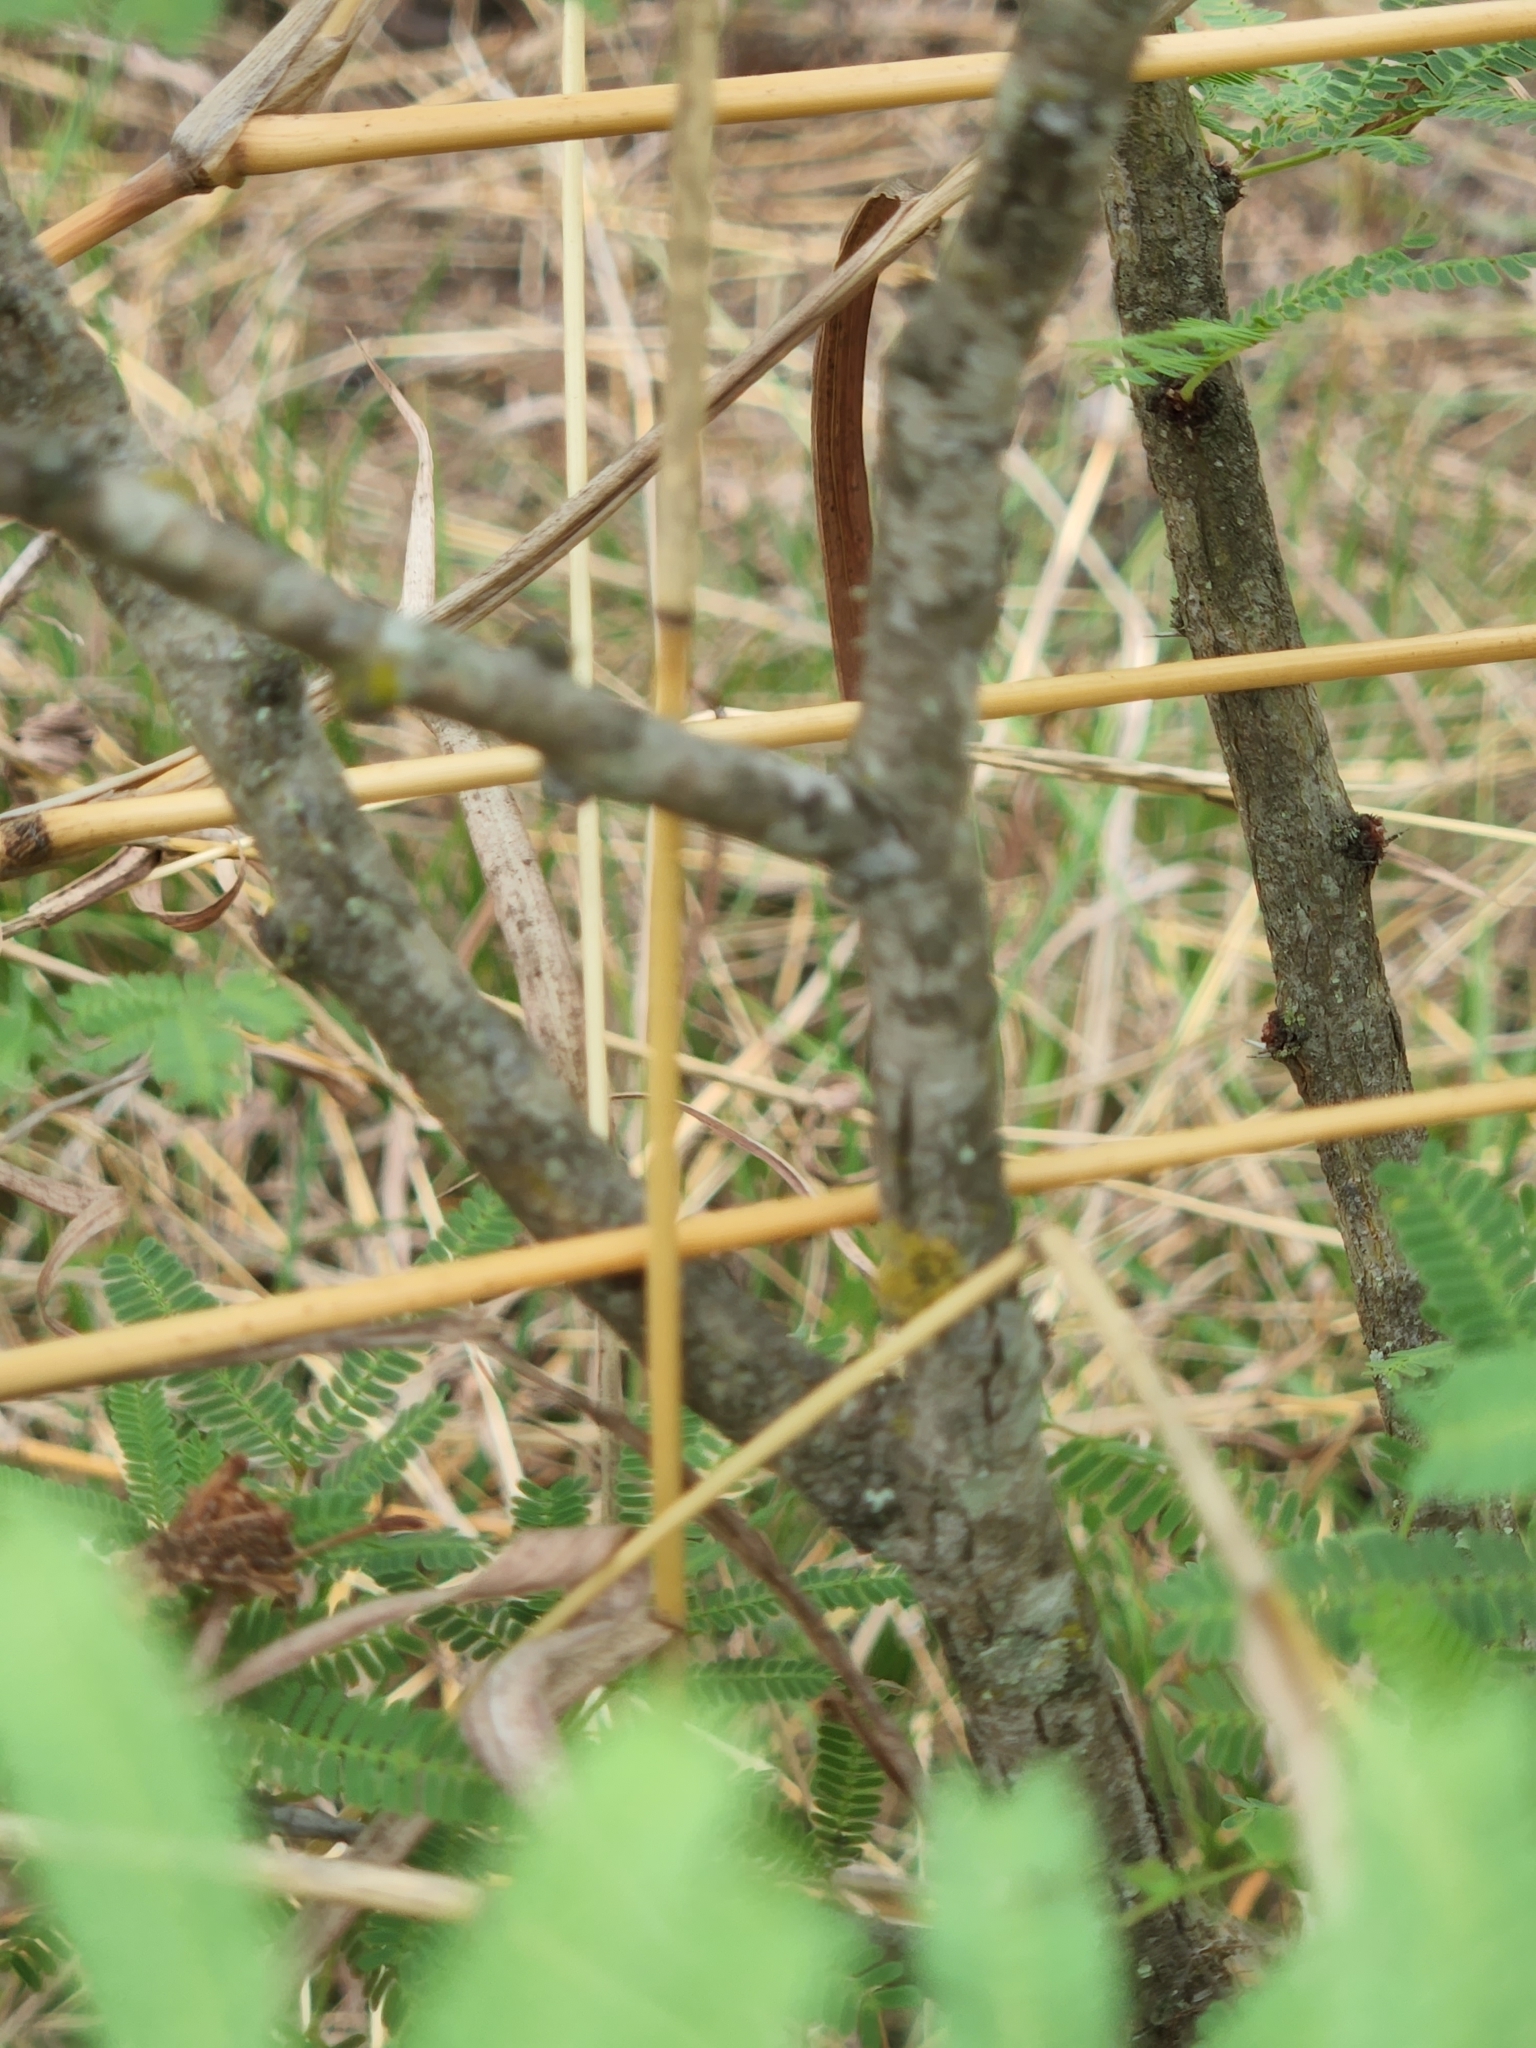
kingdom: Plantae
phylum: Tracheophyta
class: Magnoliopsida
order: Fabales
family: Fabaceae
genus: Vachellia
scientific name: Vachellia schaffneri
